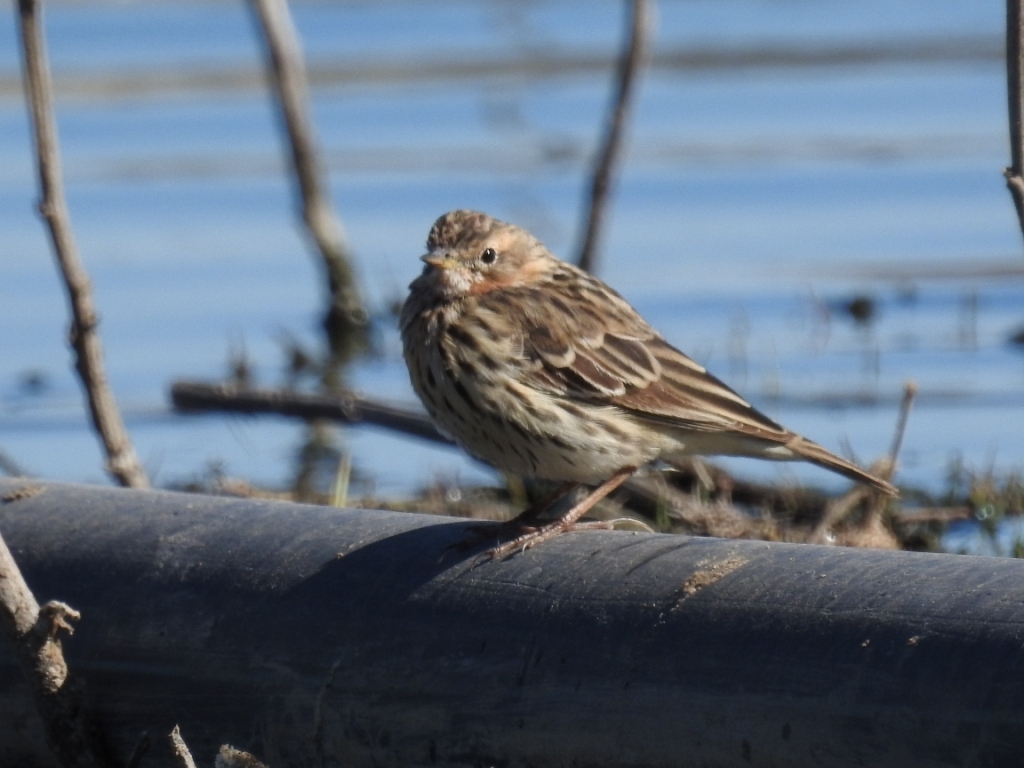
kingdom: Animalia
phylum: Chordata
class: Aves
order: Passeriformes
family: Motacillidae
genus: Anthus
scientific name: Anthus cervinus
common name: Red-throated pipit
